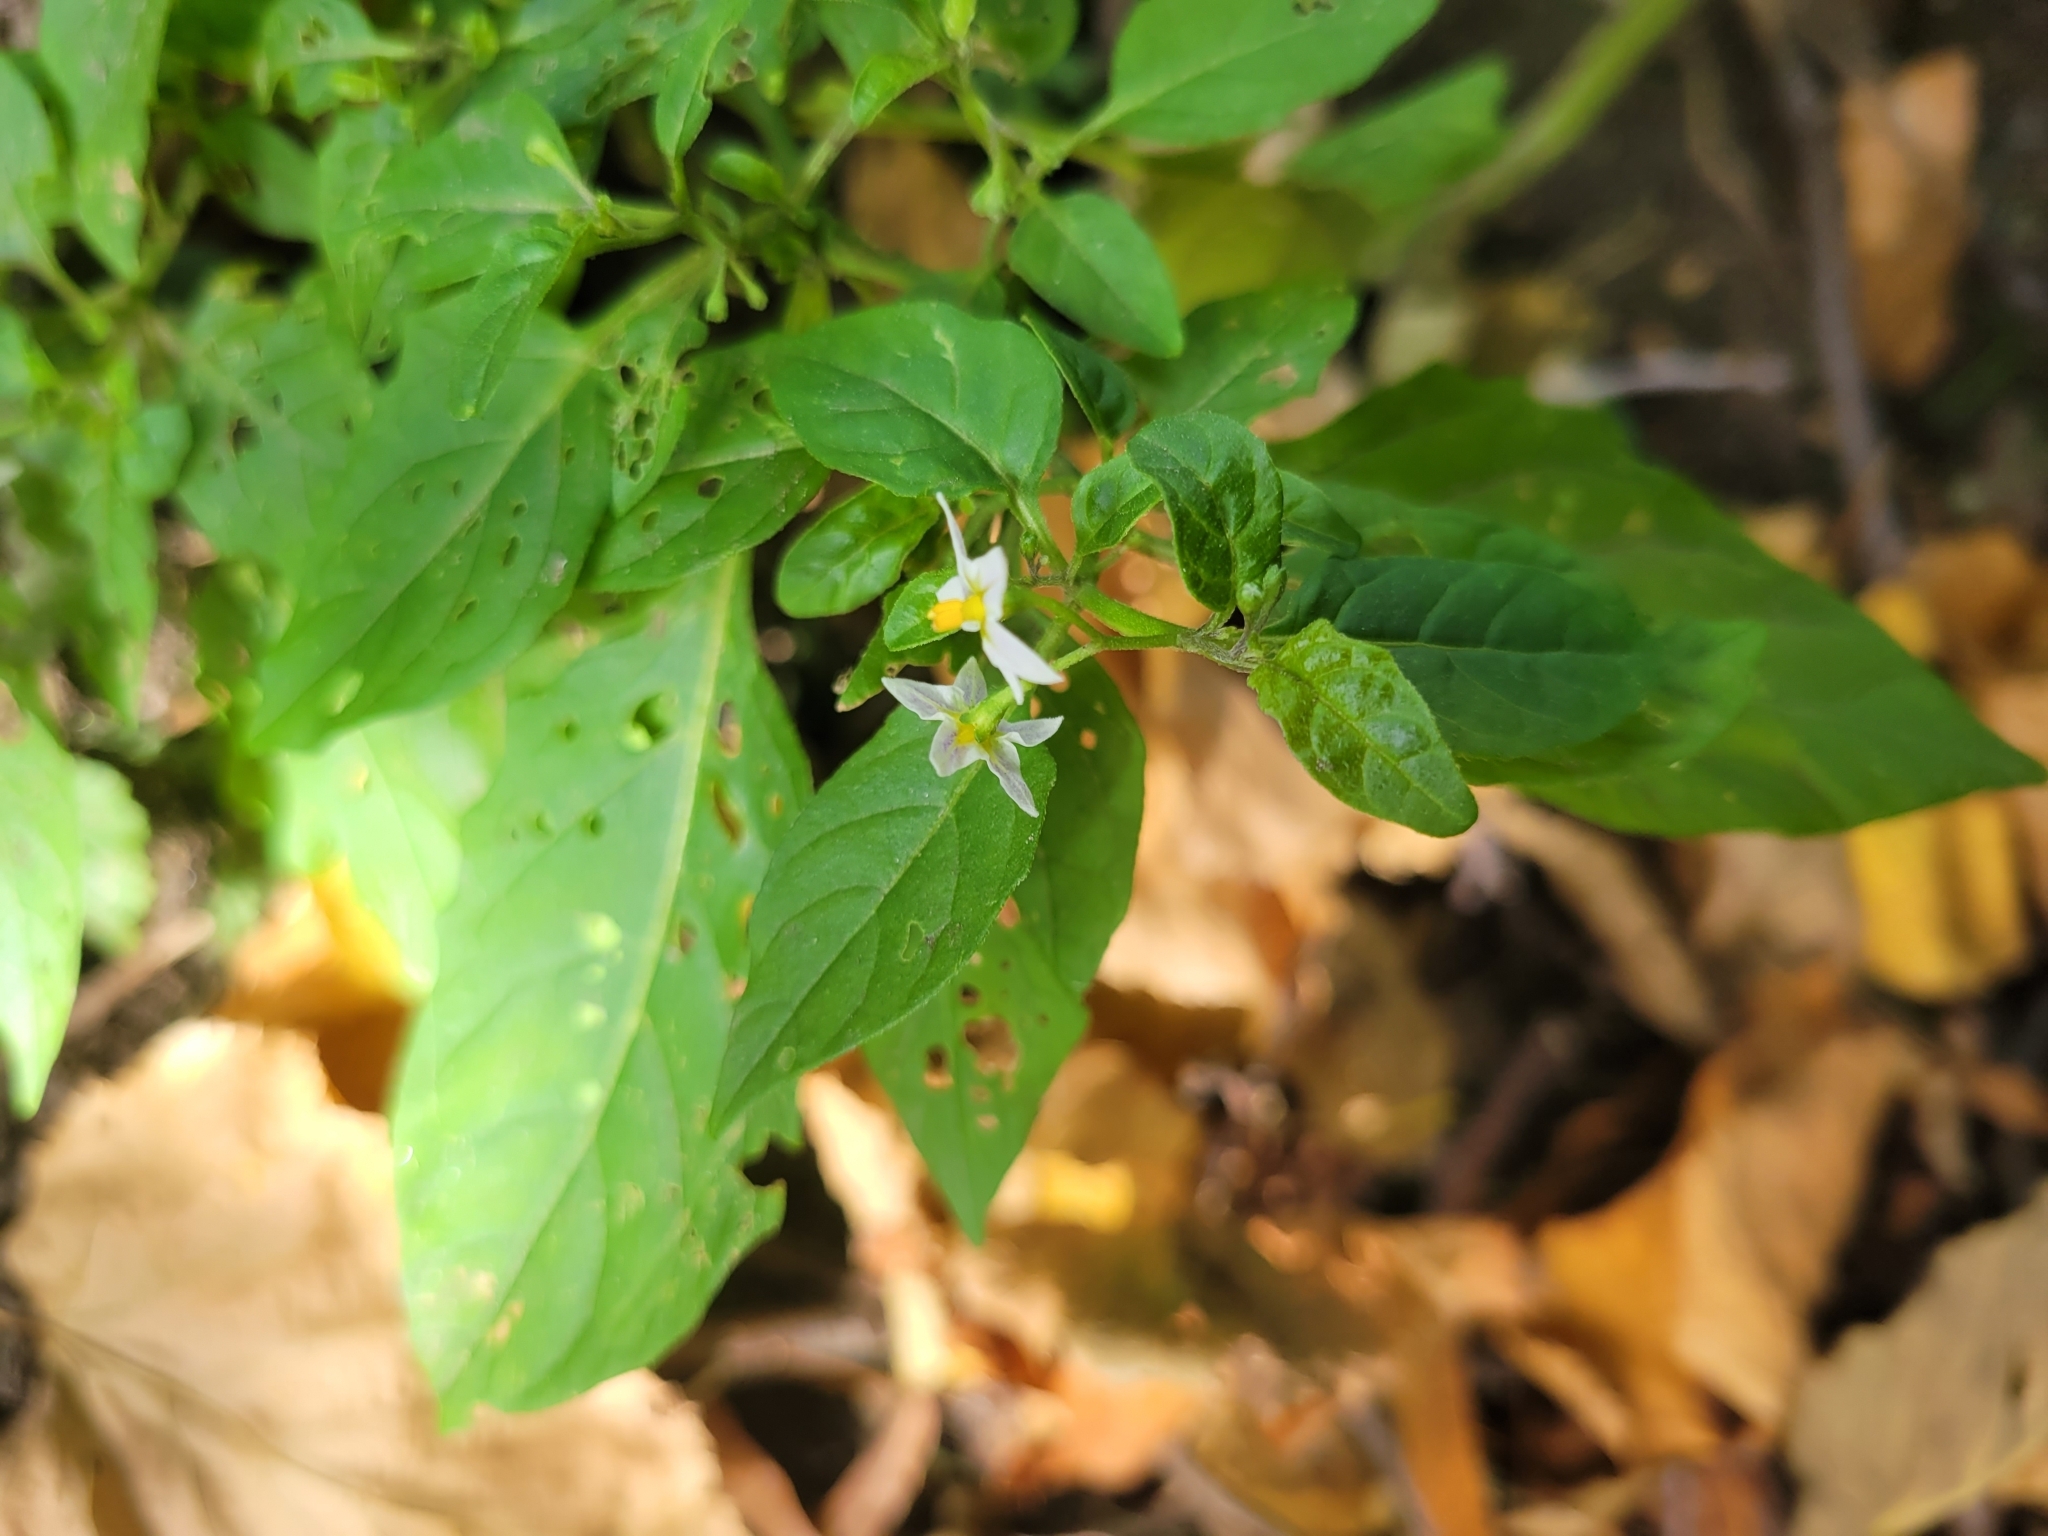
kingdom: Plantae
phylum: Tracheophyta
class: Magnoliopsida
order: Solanales
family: Solanaceae
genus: Solanum
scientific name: Solanum emulans
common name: Eastern black nightshade
